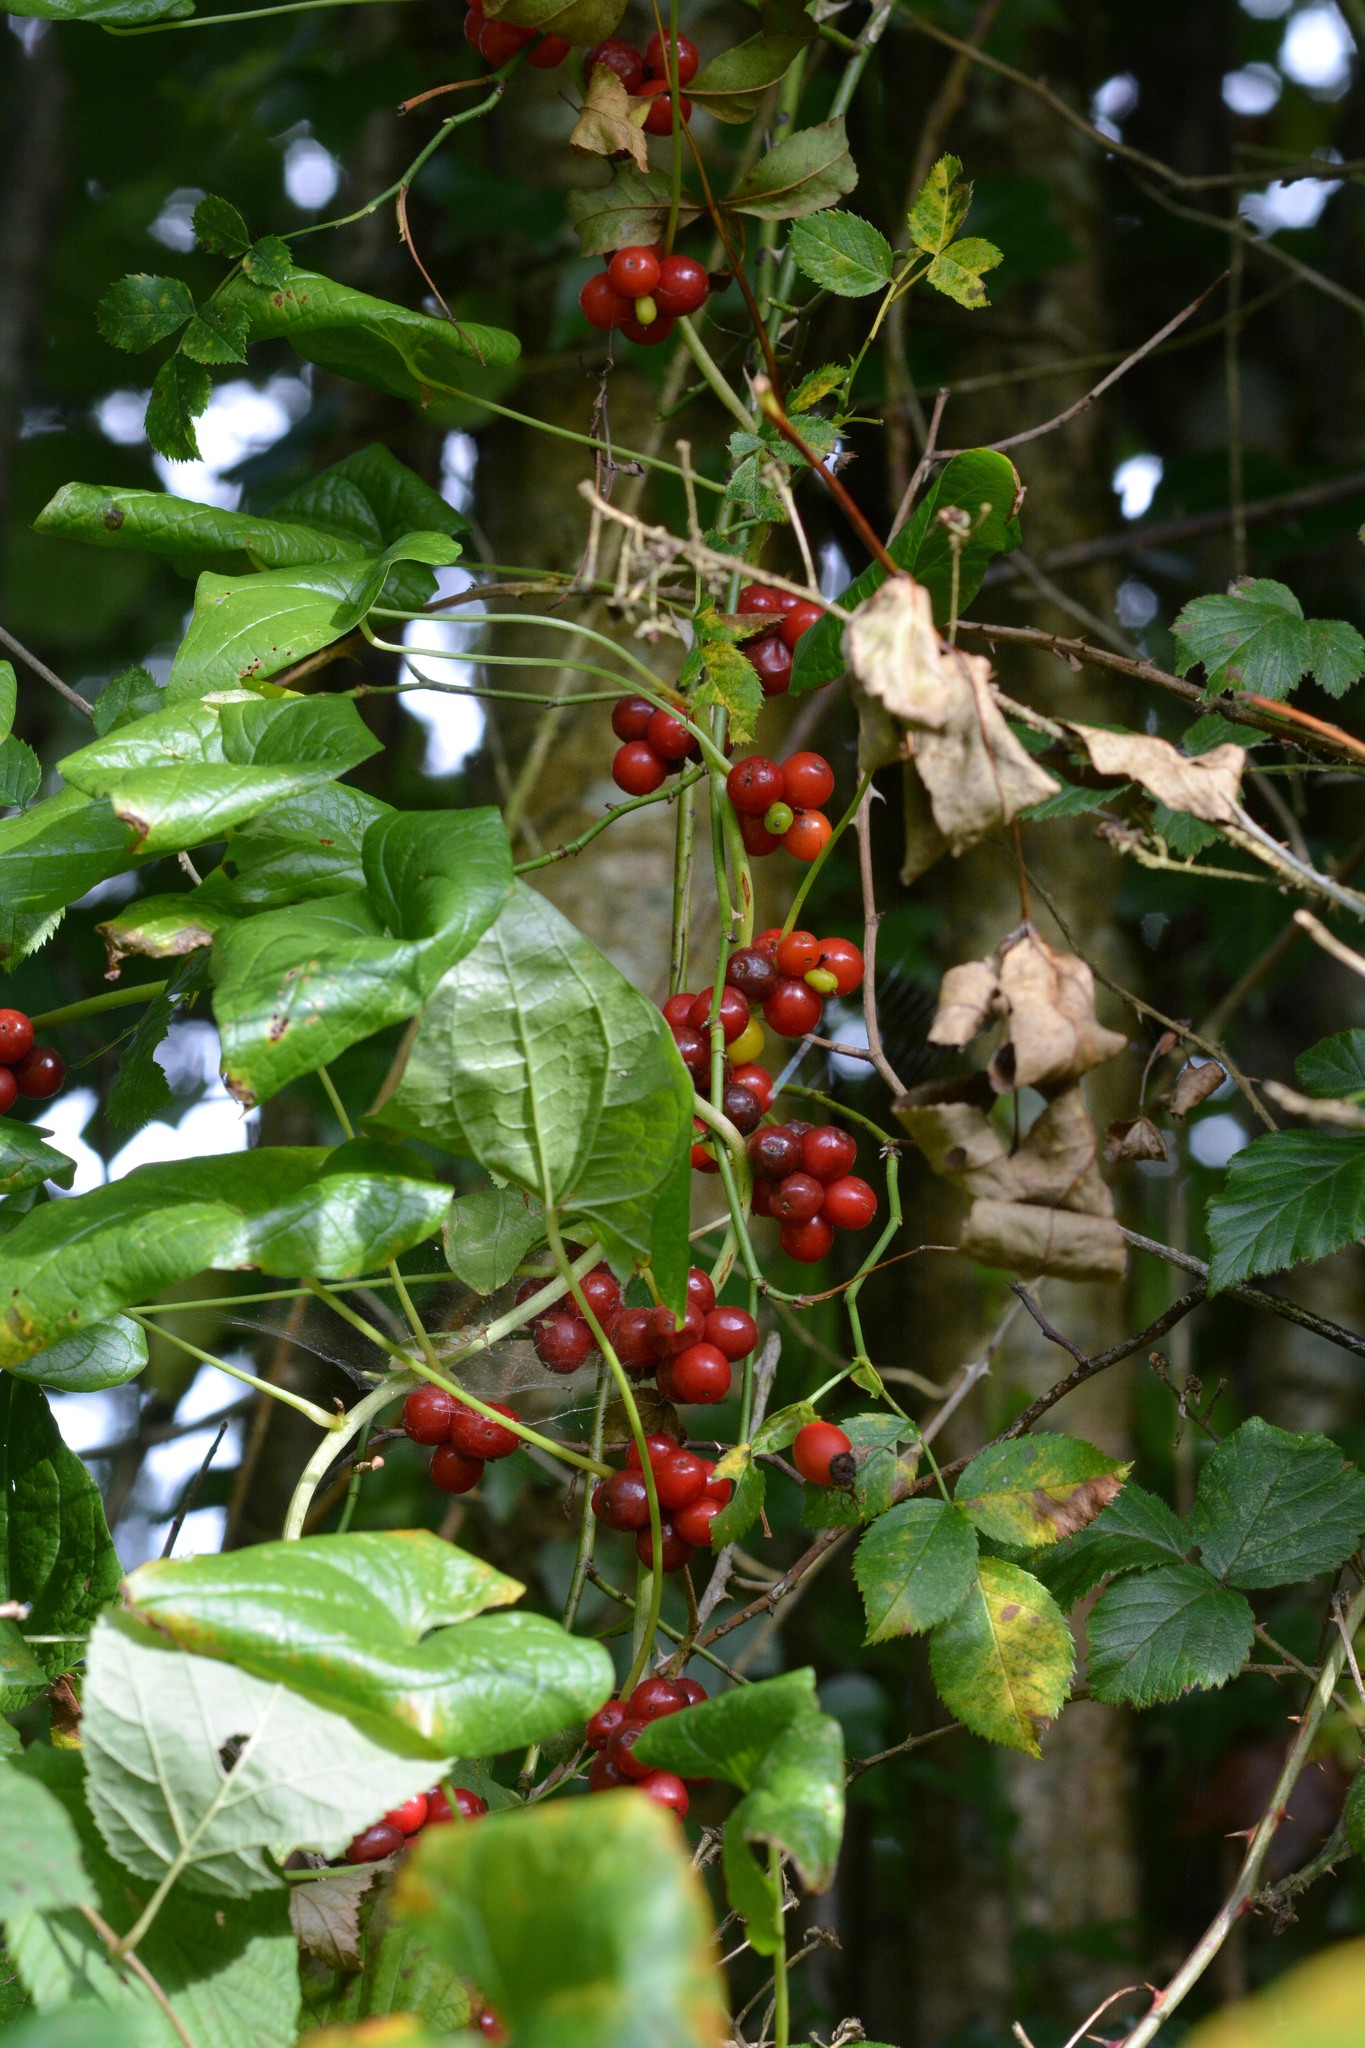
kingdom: Plantae
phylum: Tracheophyta
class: Liliopsida
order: Dioscoreales
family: Dioscoreaceae
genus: Dioscorea
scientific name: Dioscorea communis
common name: Black-bindweed
